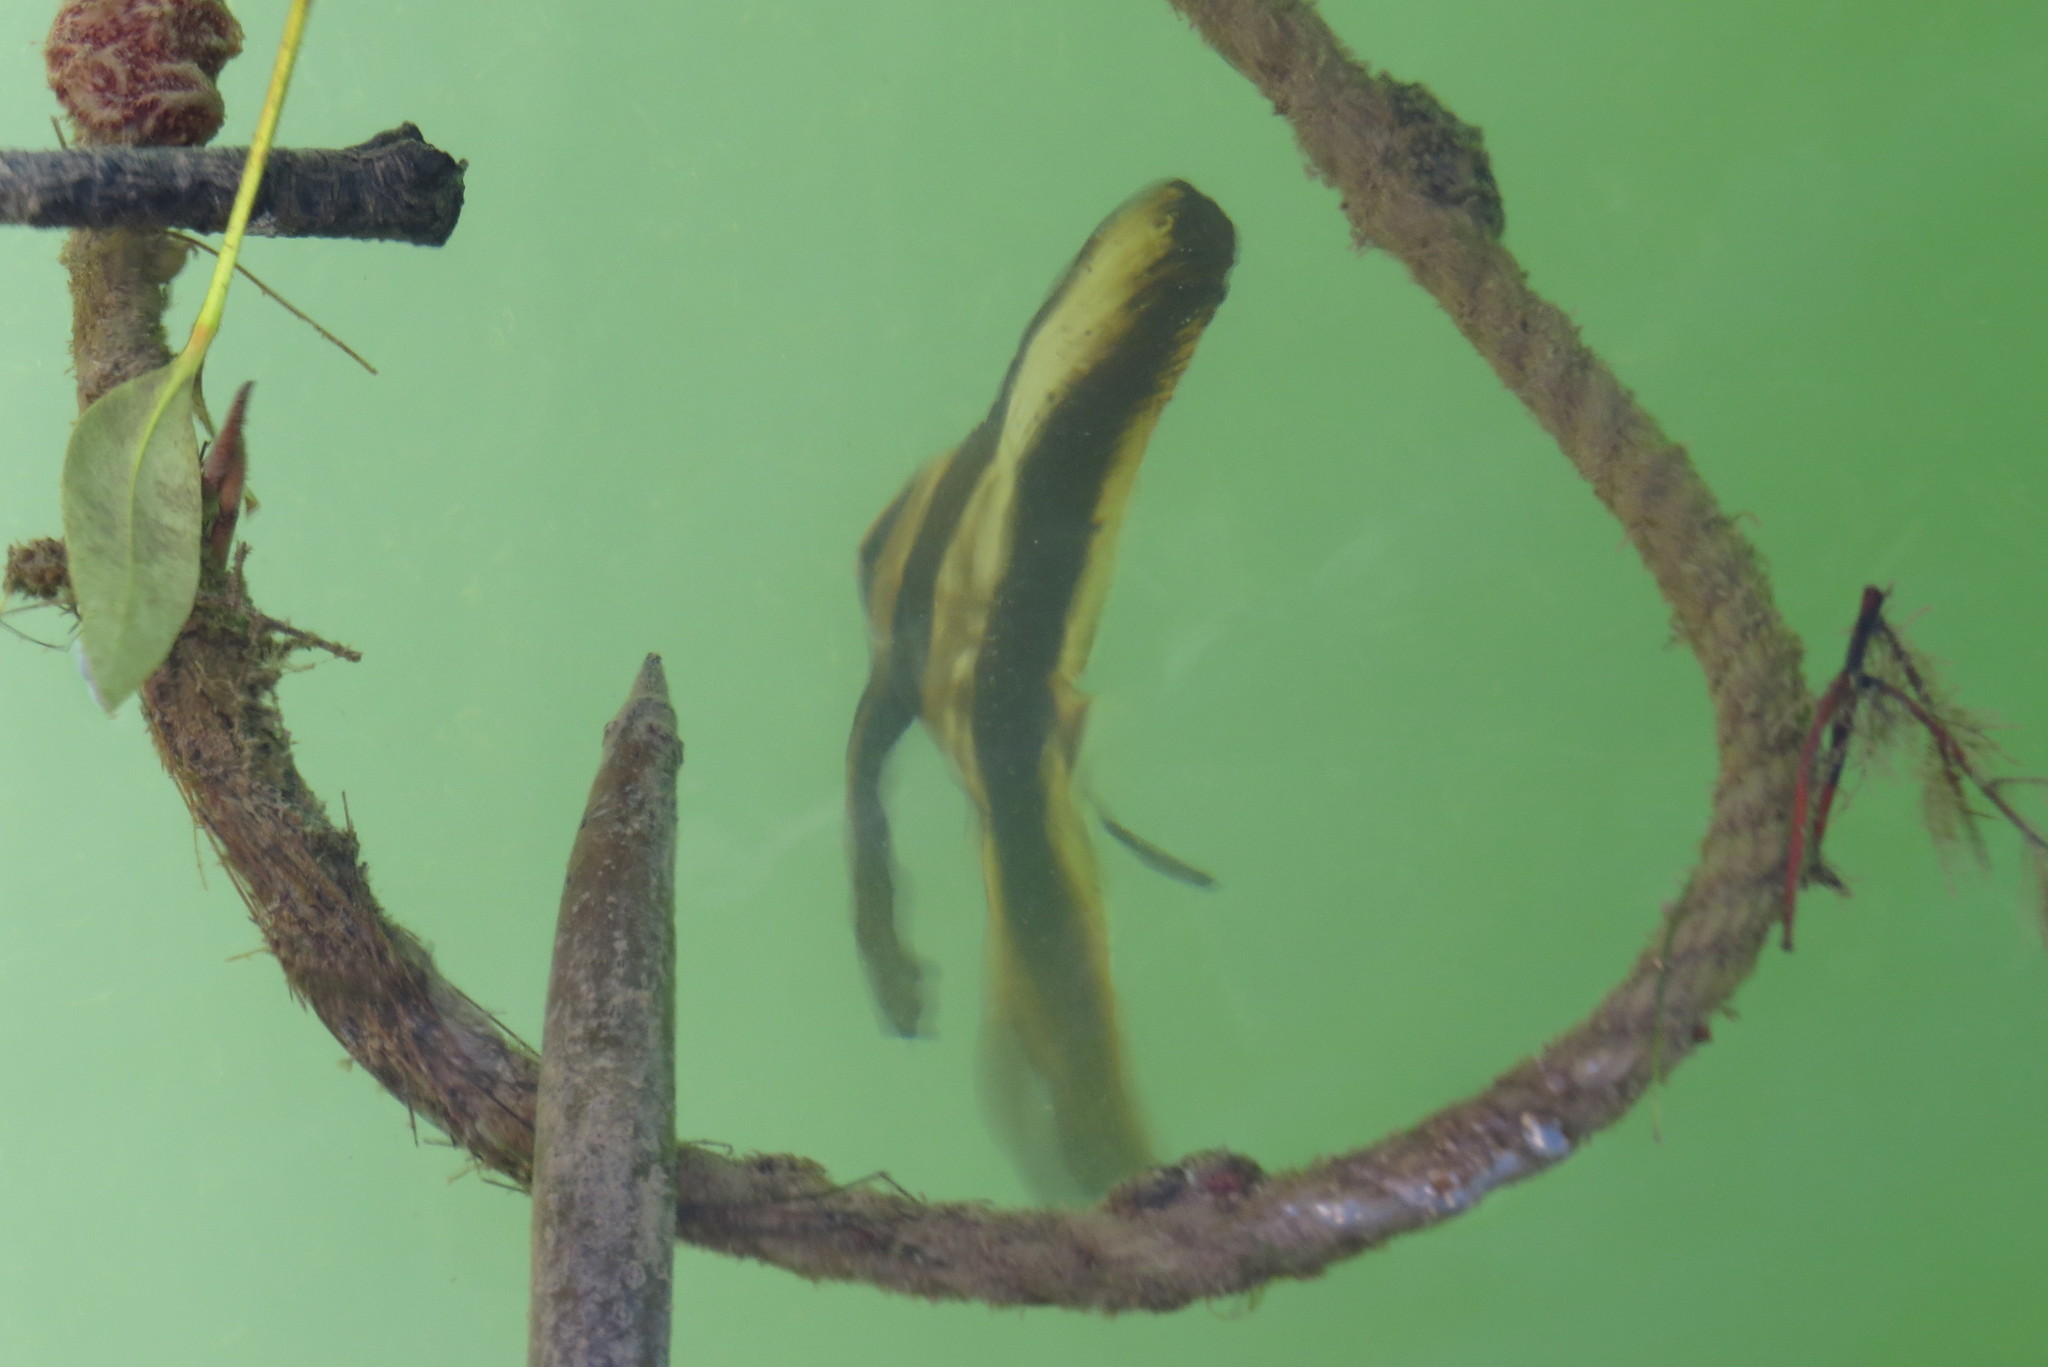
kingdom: Animalia
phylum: Chordata
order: Perciformes
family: Ephippidae
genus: Platax
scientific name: Platax teira
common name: Longfin baitfish
